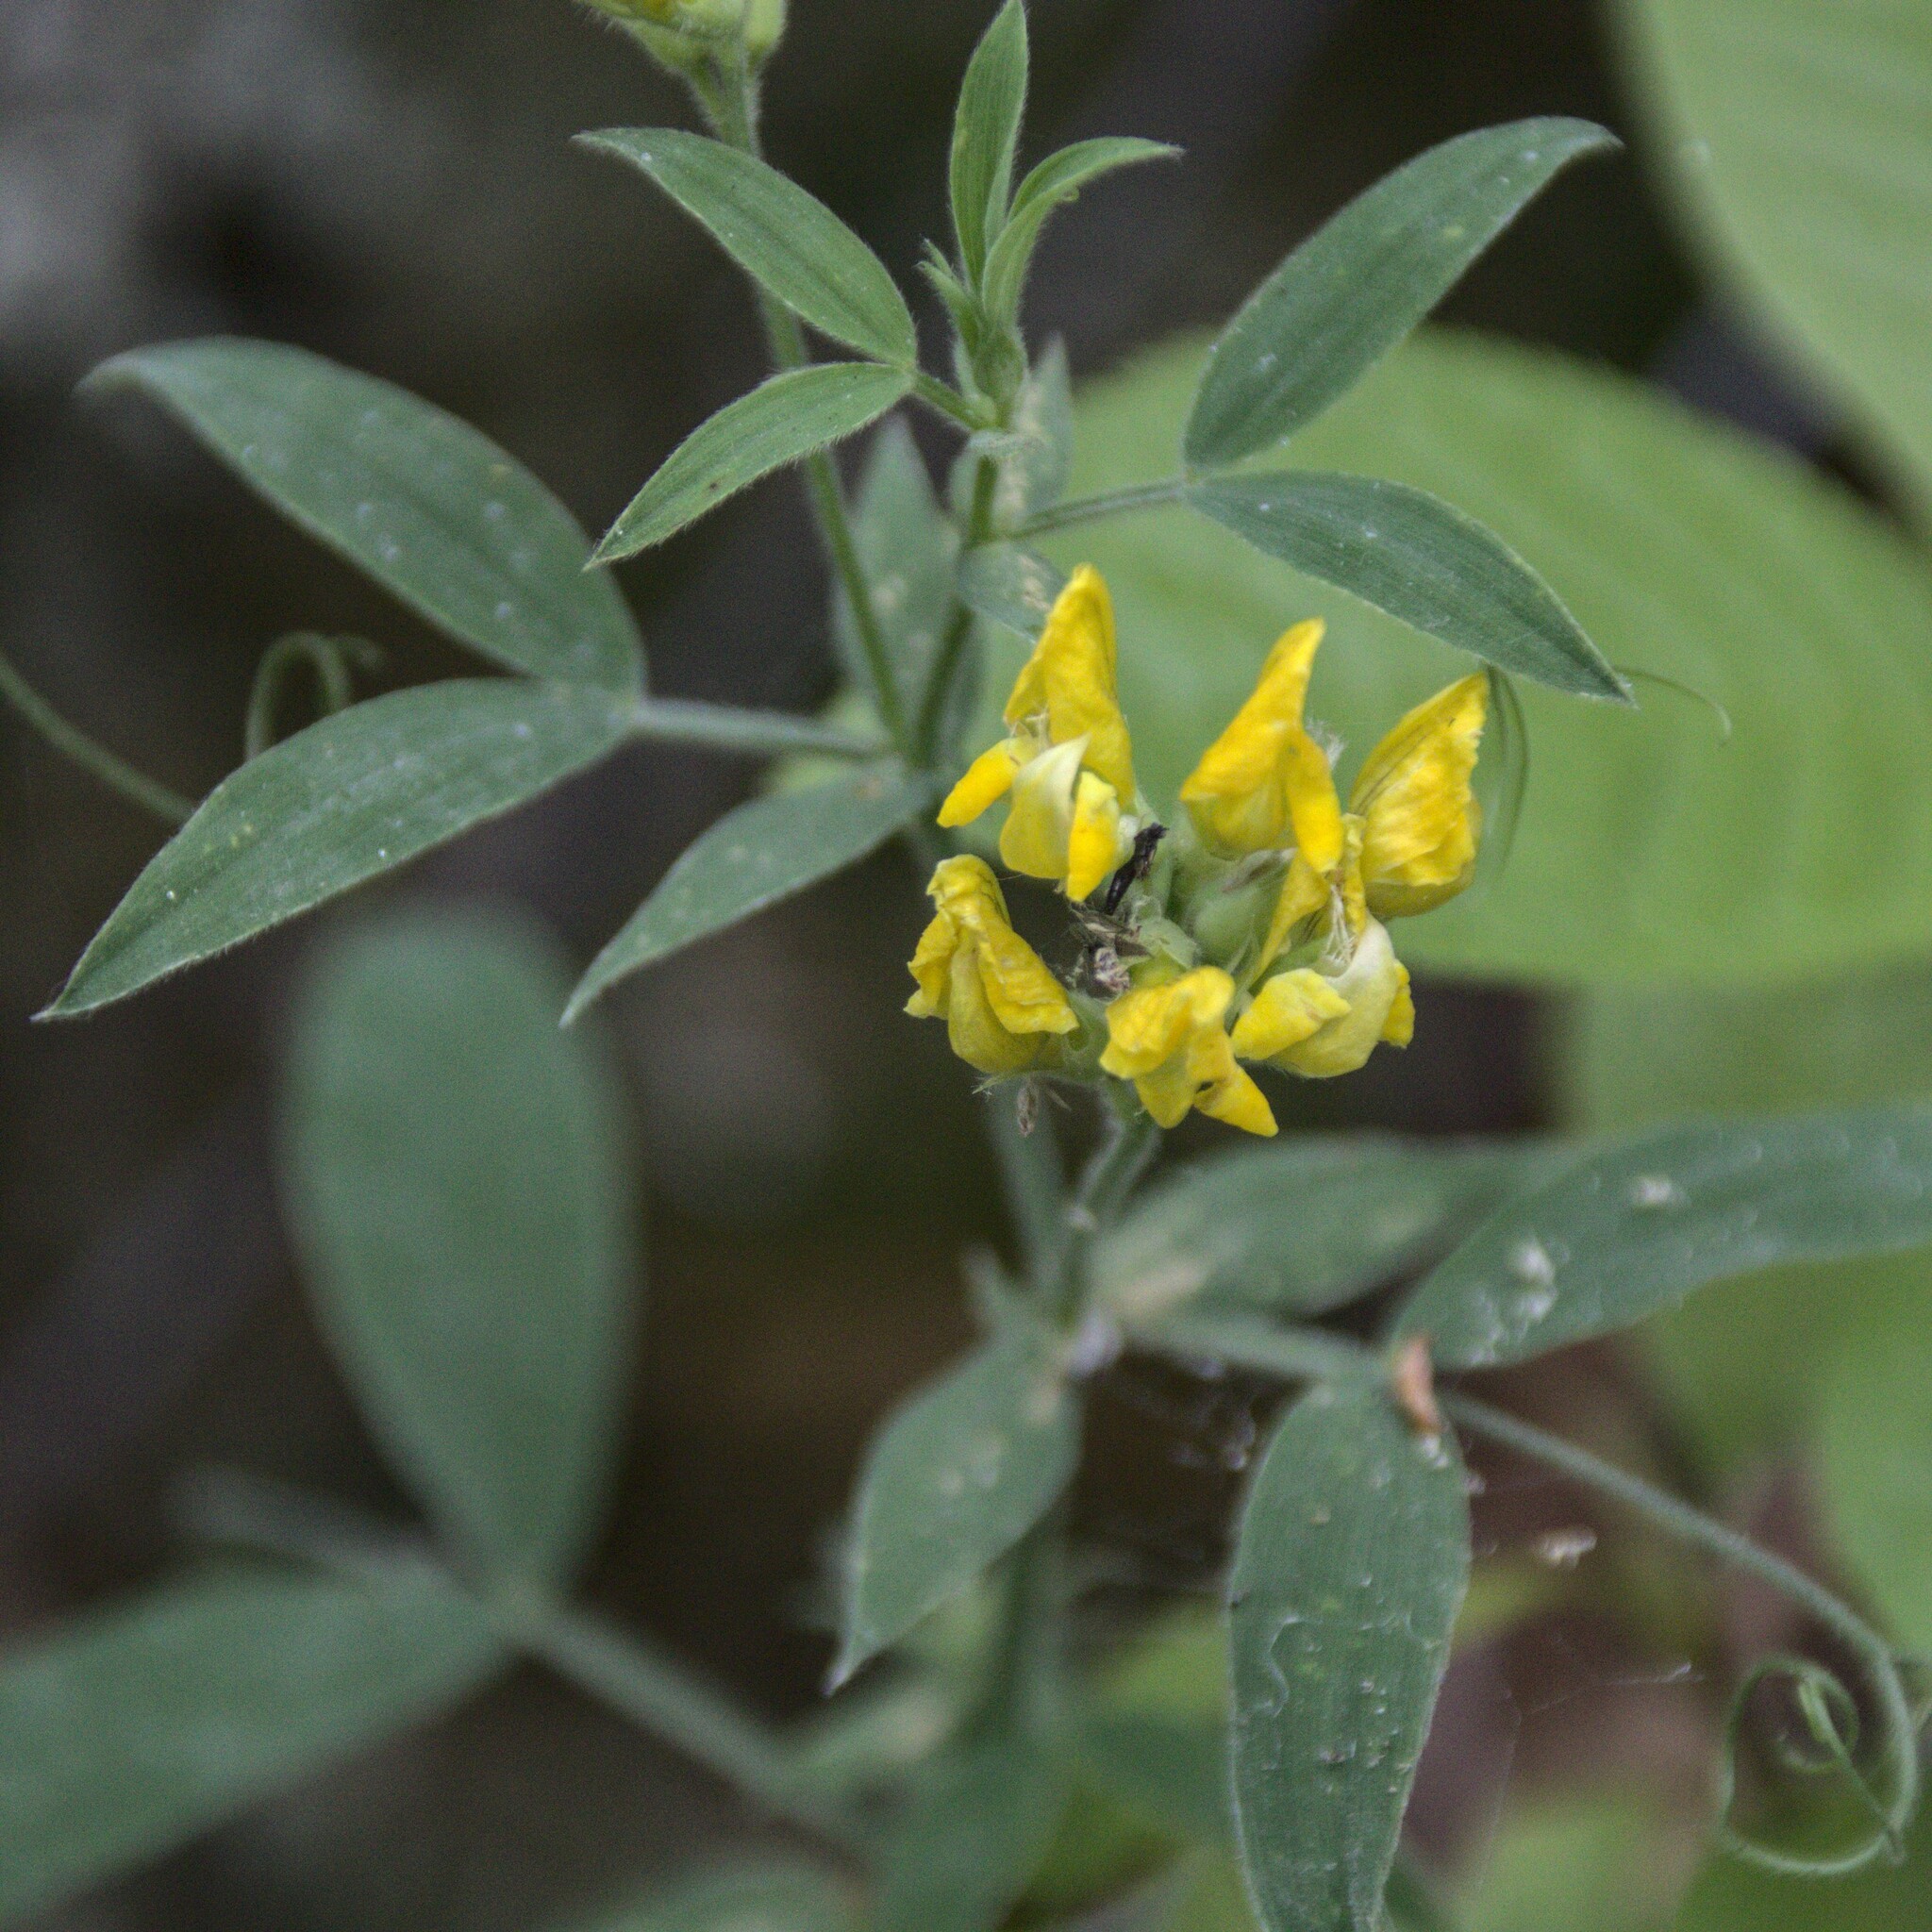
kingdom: Plantae
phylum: Tracheophyta
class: Magnoliopsida
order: Fabales
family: Fabaceae
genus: Lathyrus
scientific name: Lathyrus pratensis
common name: Meadow vetchling
